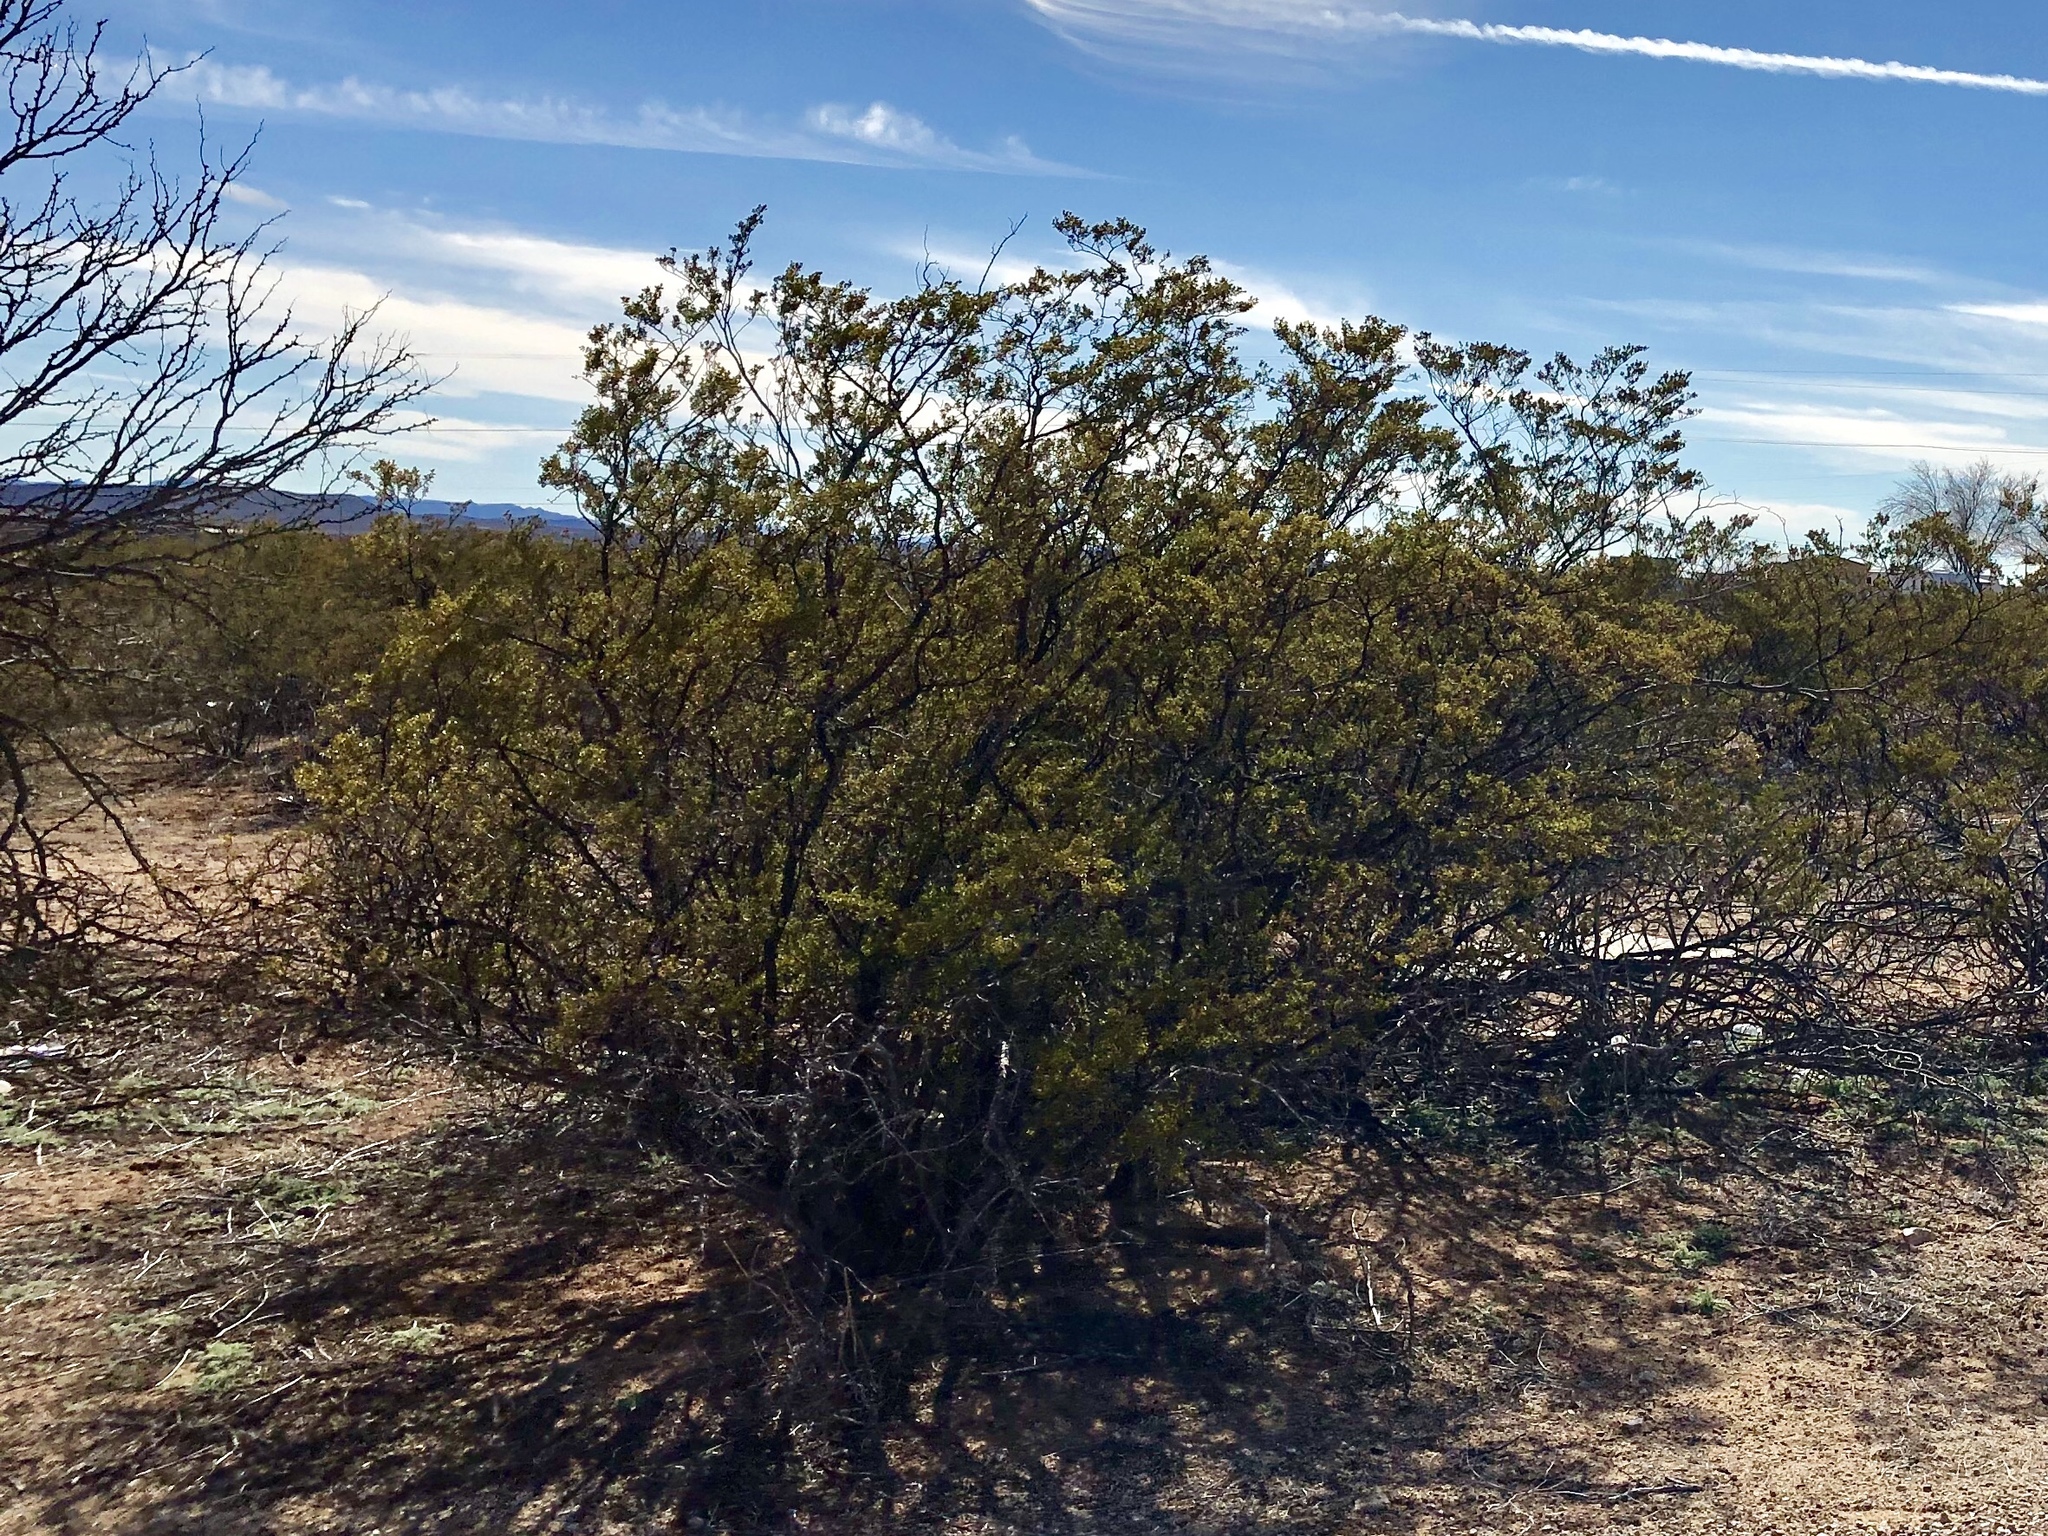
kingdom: Plantae
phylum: Tracheophyta
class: Magnoliopsida
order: Zygophyllales
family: Zygophyllaceae
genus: Larrea
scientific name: Larrea tridentata
